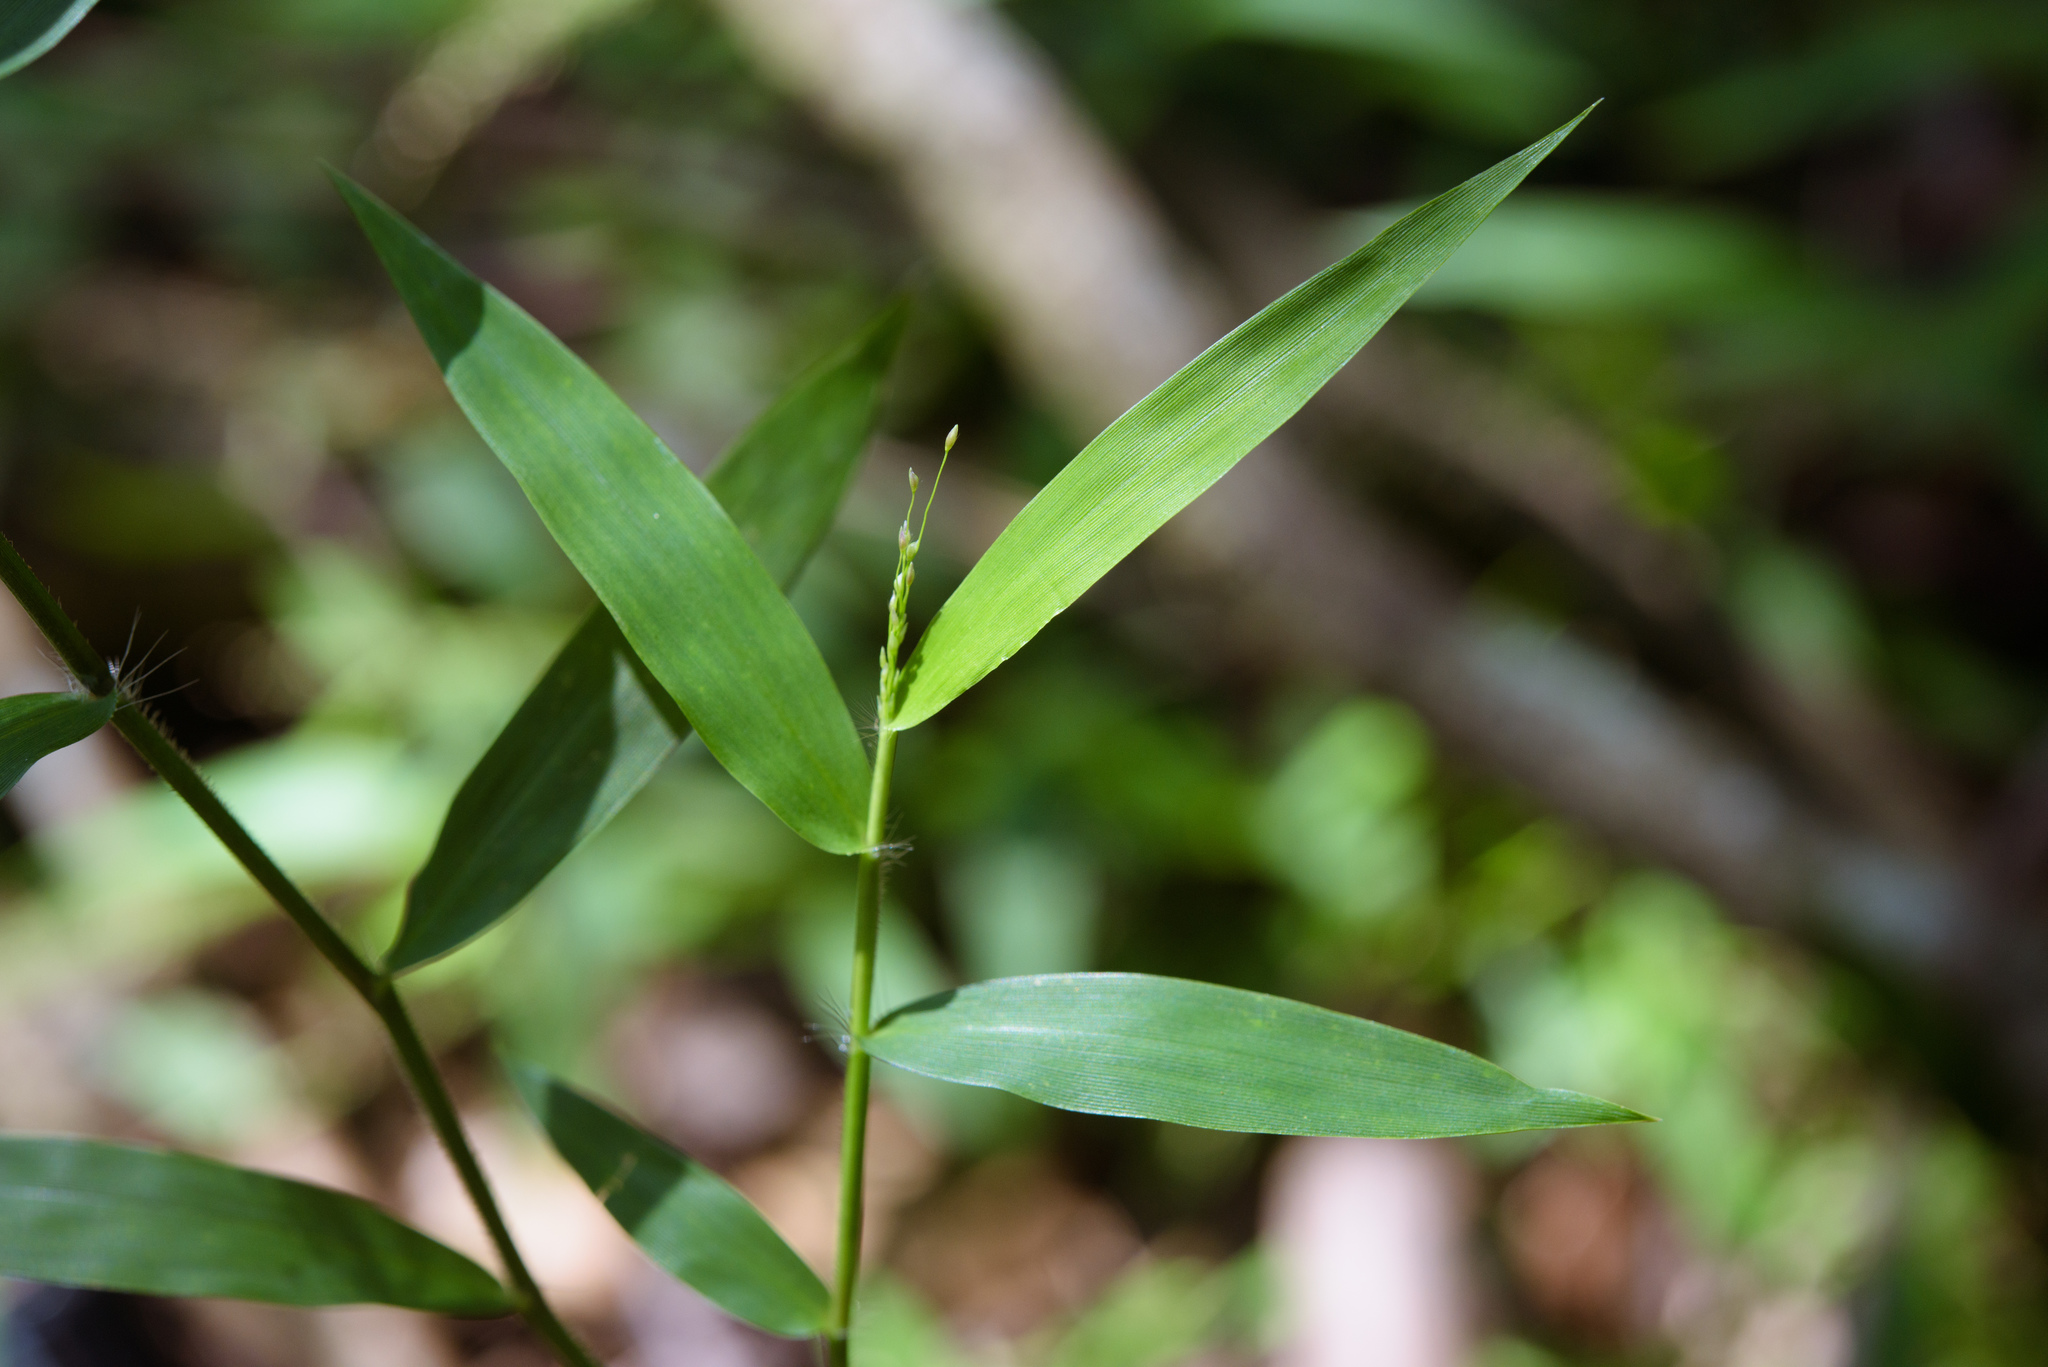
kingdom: Plantae
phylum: Tracheophyta
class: Liliopsida
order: Poales
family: Poaceae
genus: Cyrtococcum
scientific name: Cyrtococcum patens
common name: Broad-leaved bowgrass
